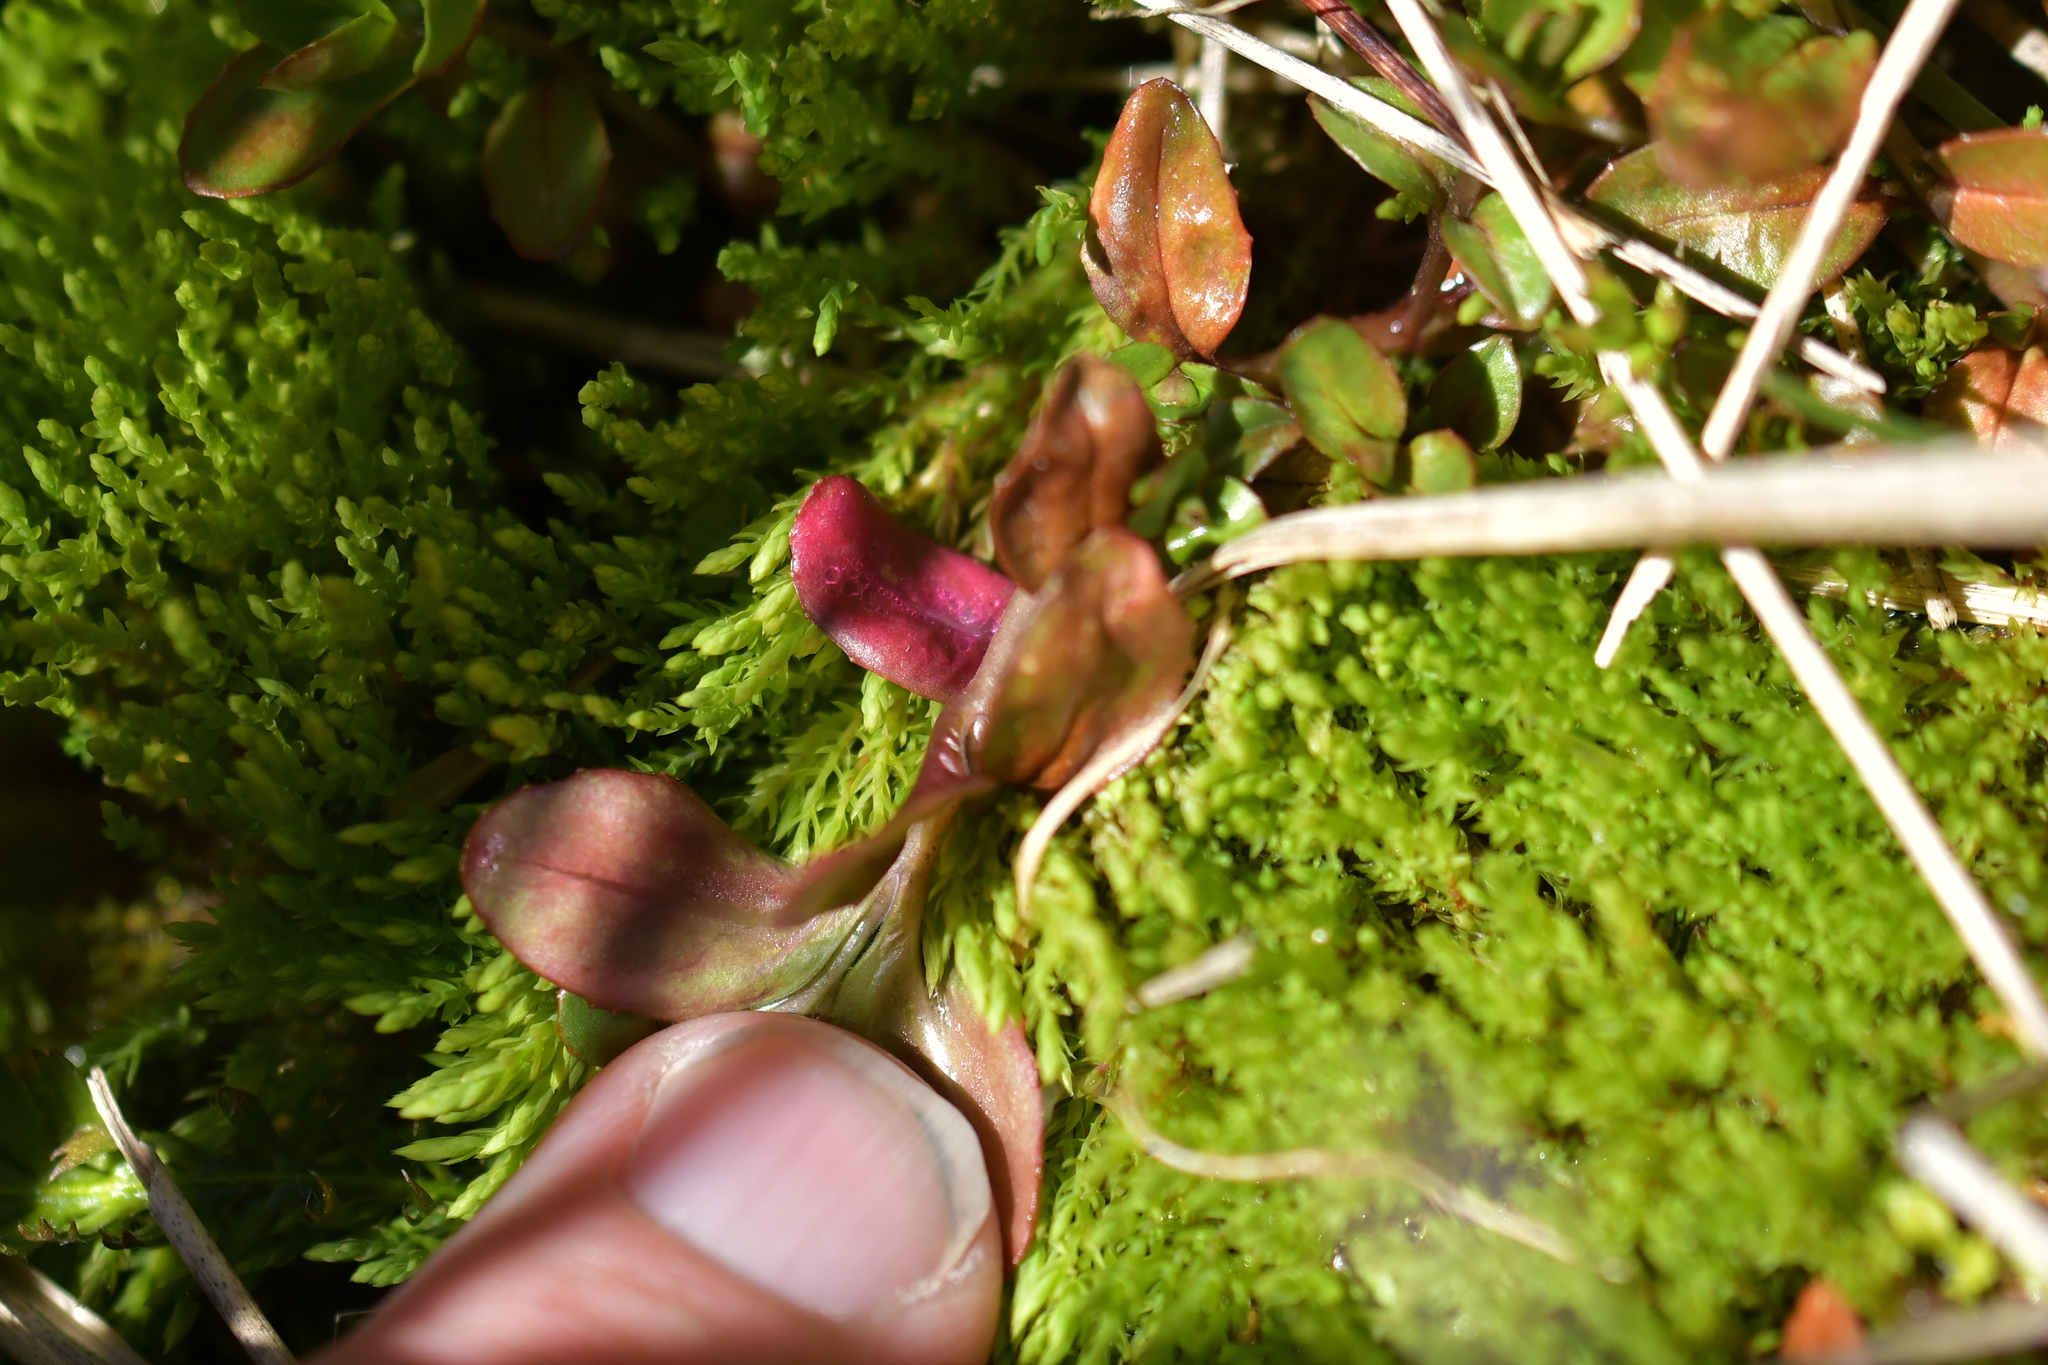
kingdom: Plantae
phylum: Tracheophyta
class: Magnoliopsida
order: Myrtales
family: Onagraceae
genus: Epilobium
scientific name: Epilobium macropus
